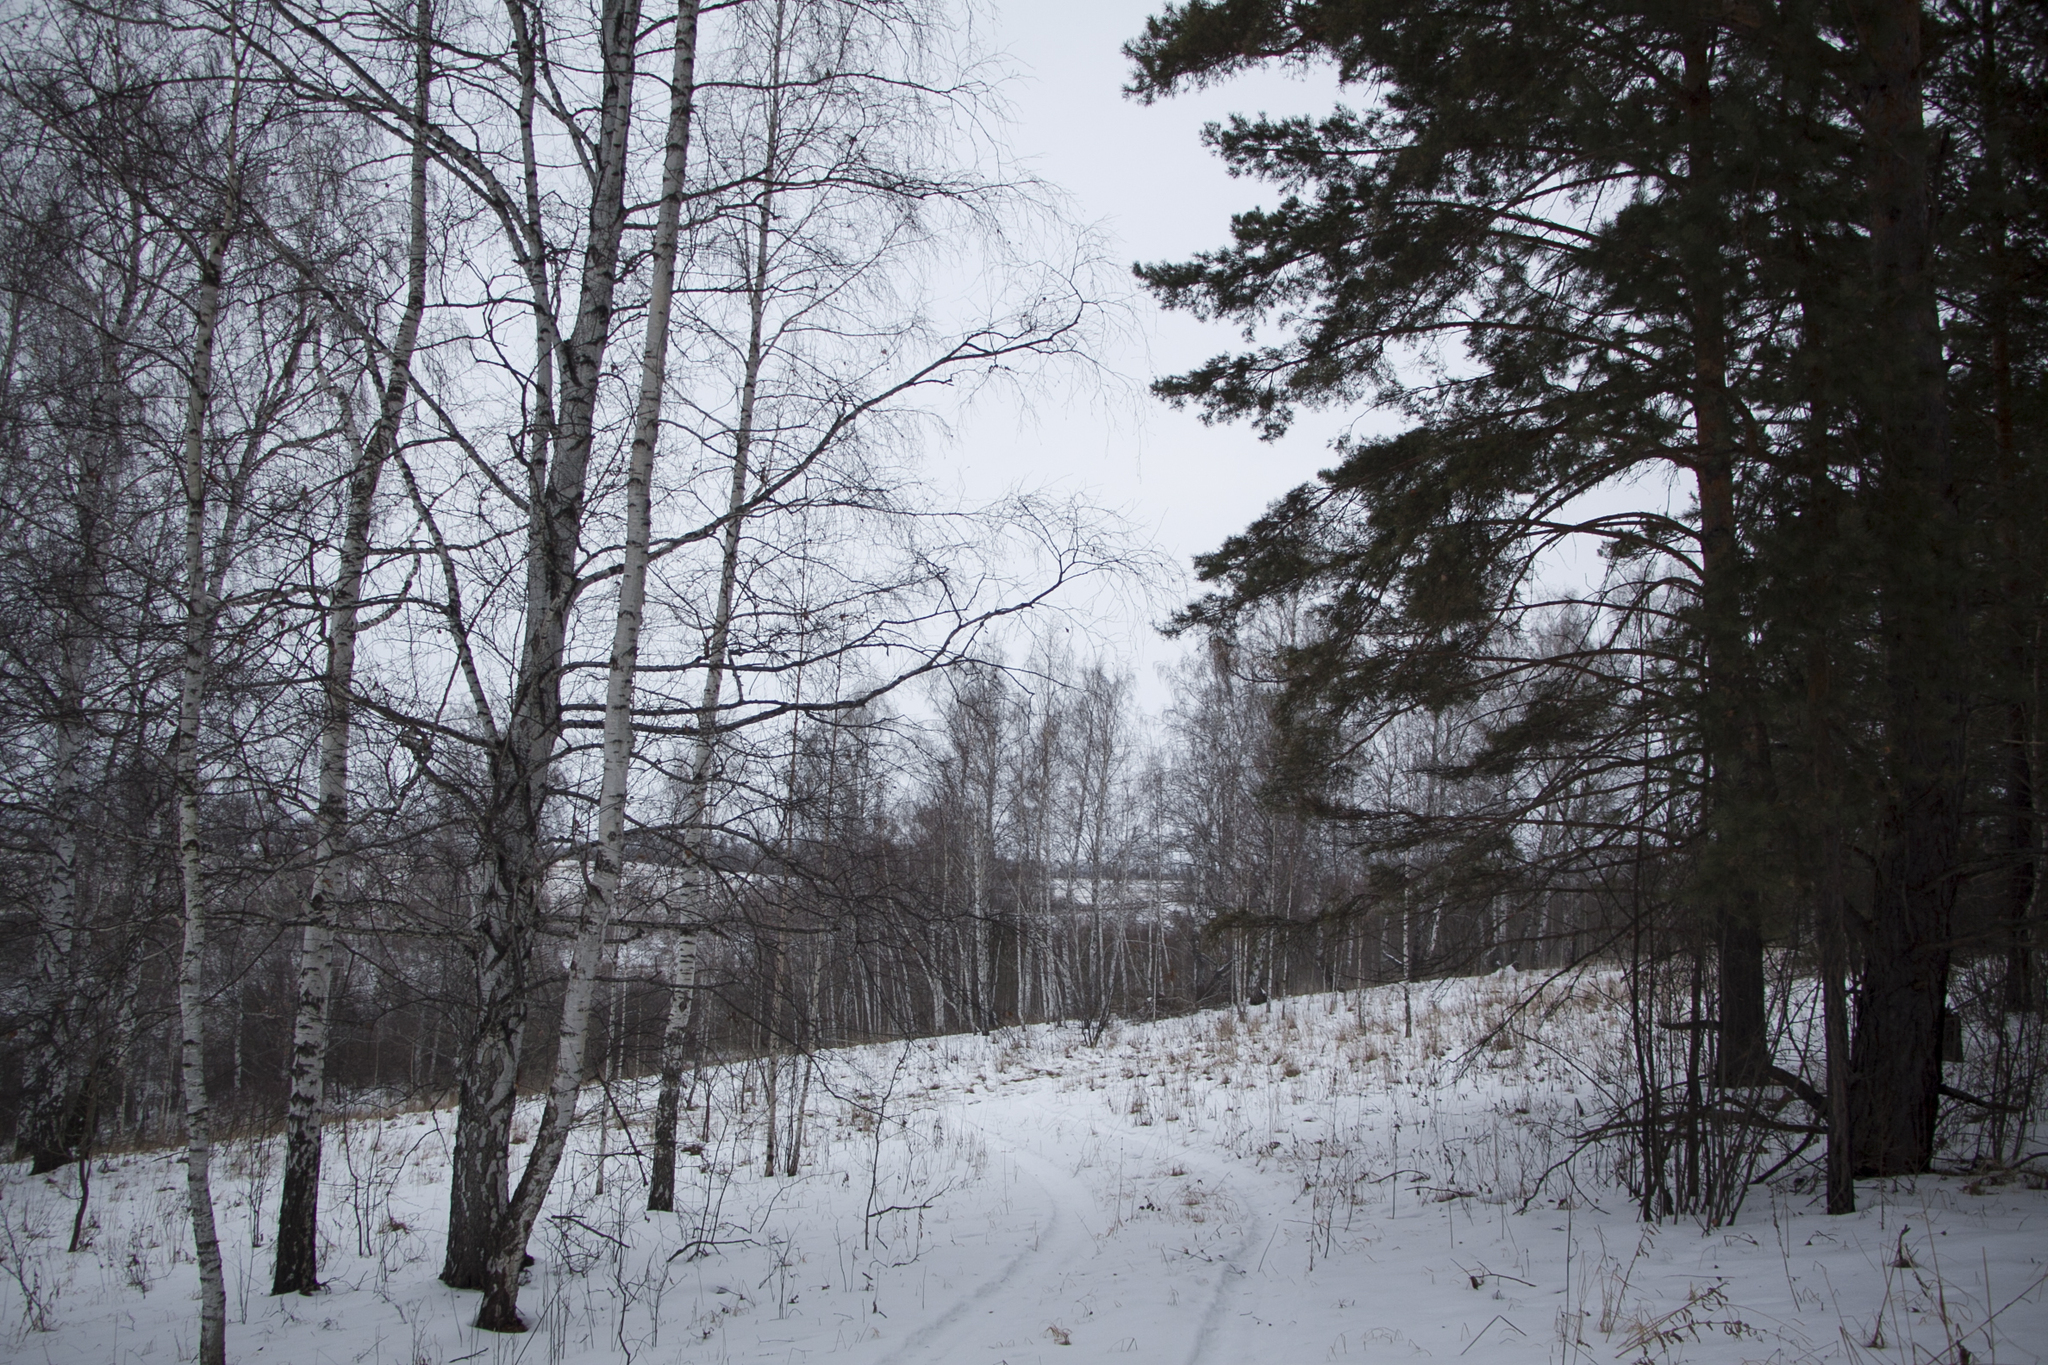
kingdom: Plantae
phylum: Tracheophyta
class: Pinopsida
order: Pinales
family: Pinaceae
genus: Pinus
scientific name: Pinus sylvestris
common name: Scots pine
